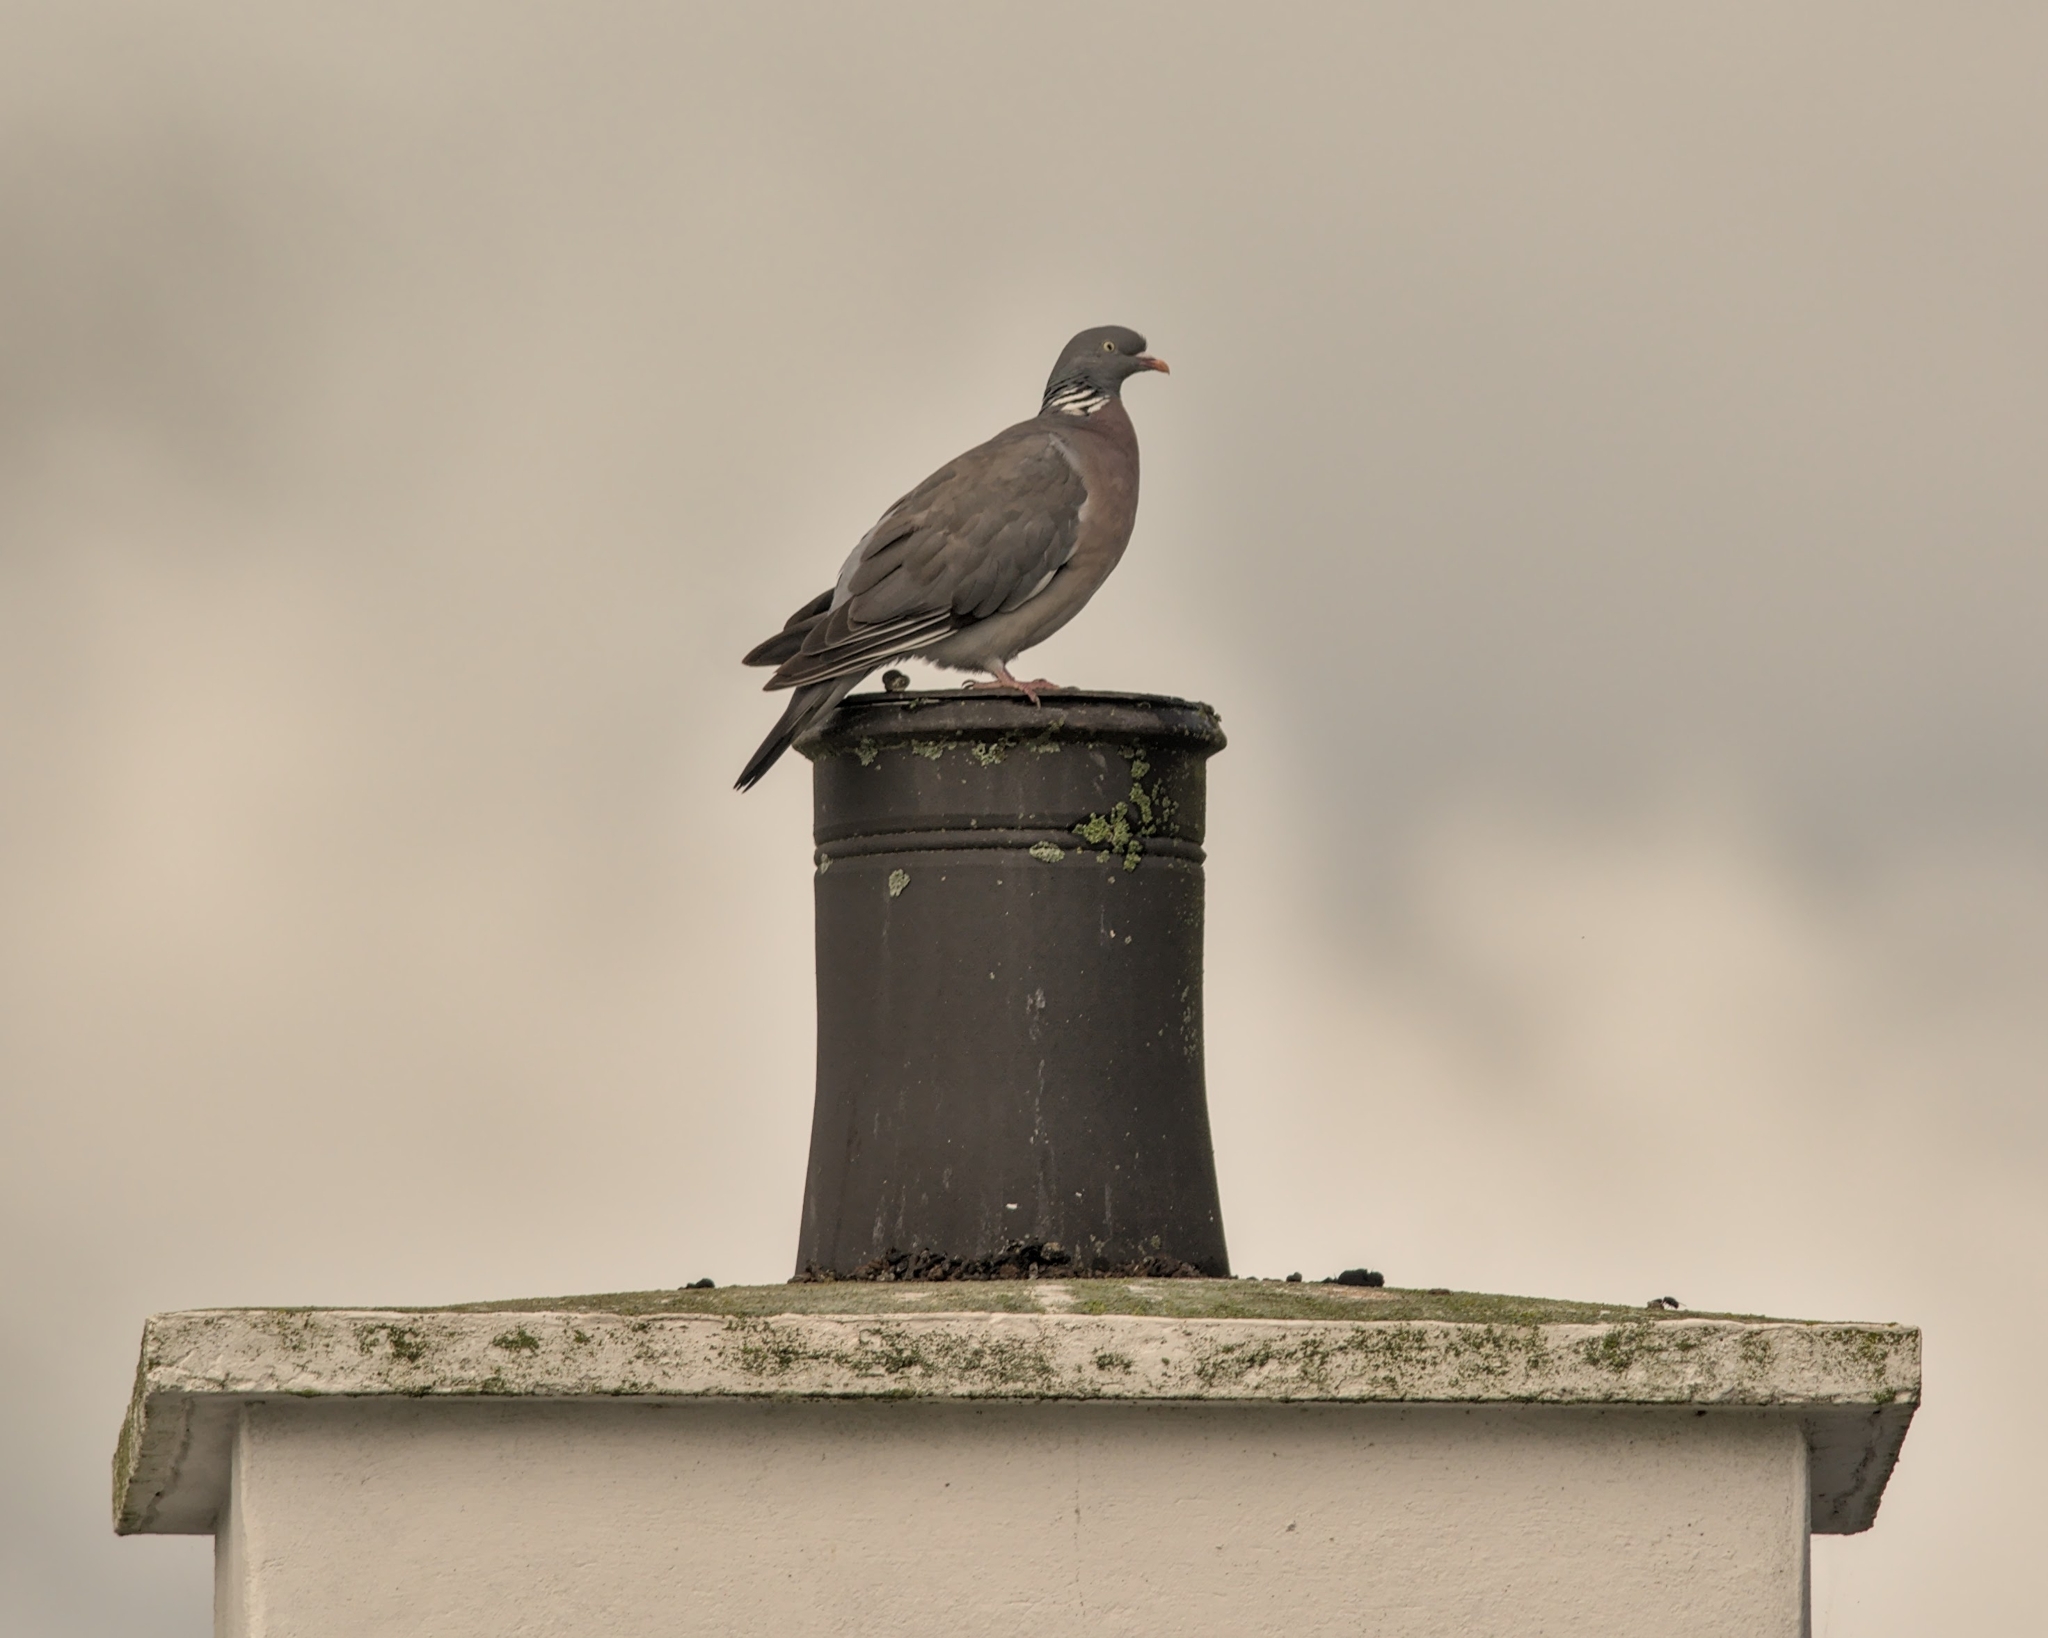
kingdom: Animalia
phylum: Chordata
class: Aves
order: Columbiformes
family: Columbidae
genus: Columba
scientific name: Columba palumbus
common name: Common wood pigeon
